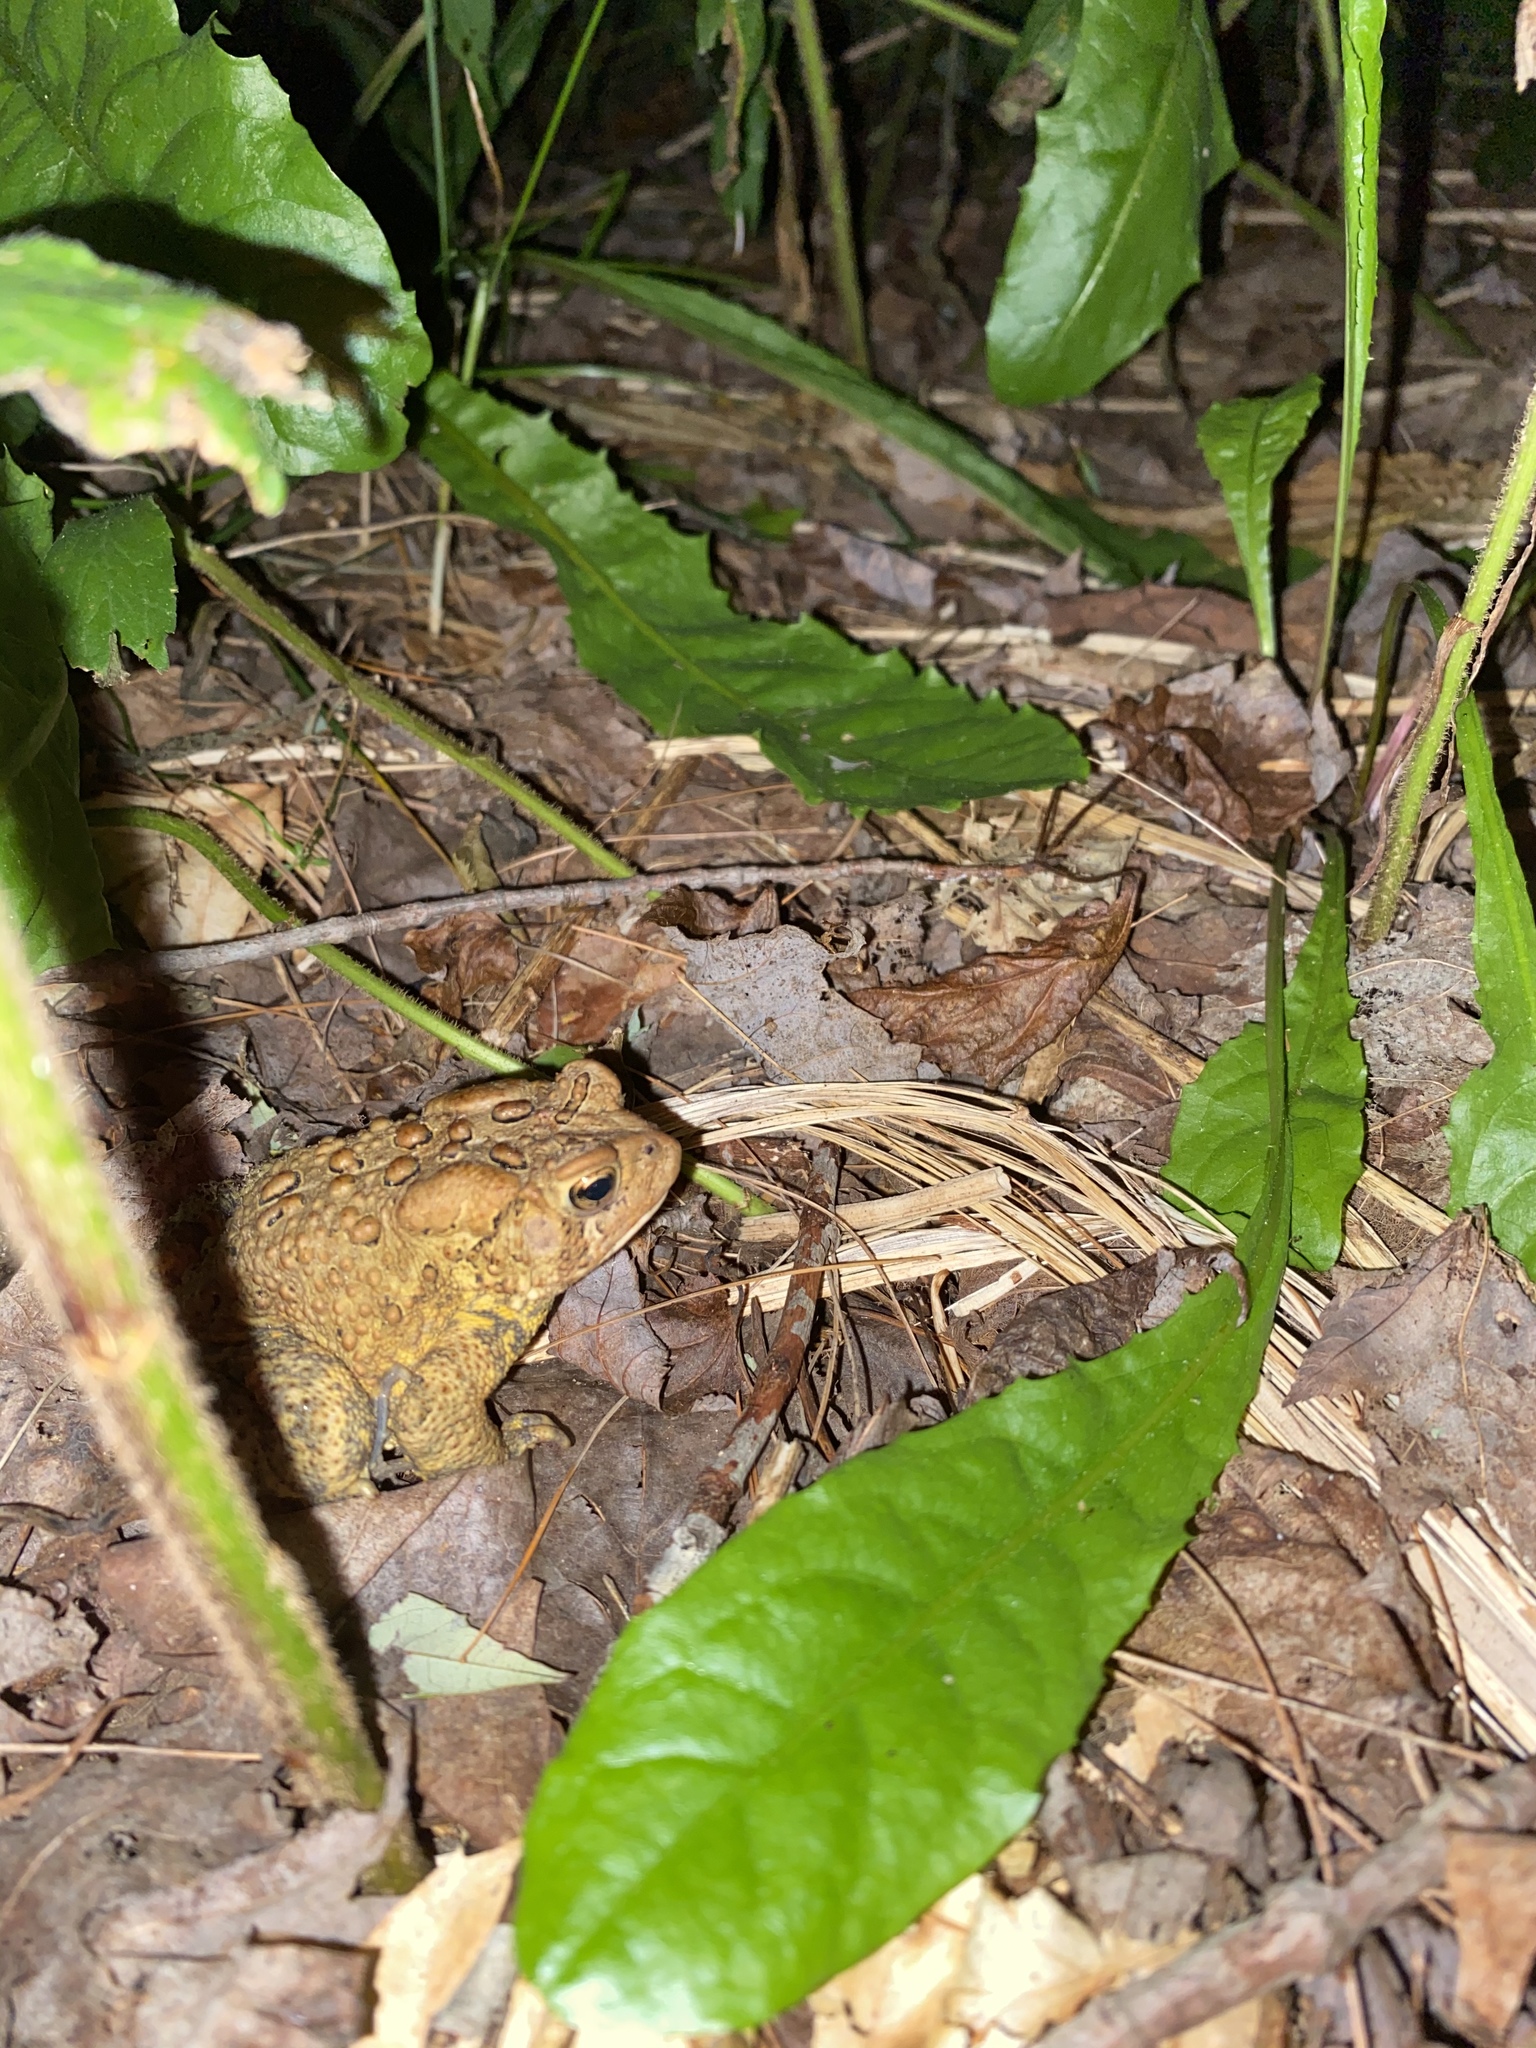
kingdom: Animalia
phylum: Chordata
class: Amphibia
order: Anura
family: Bufonidae
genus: Anaxyrus
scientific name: Anaxyrus americanus
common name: American toad
